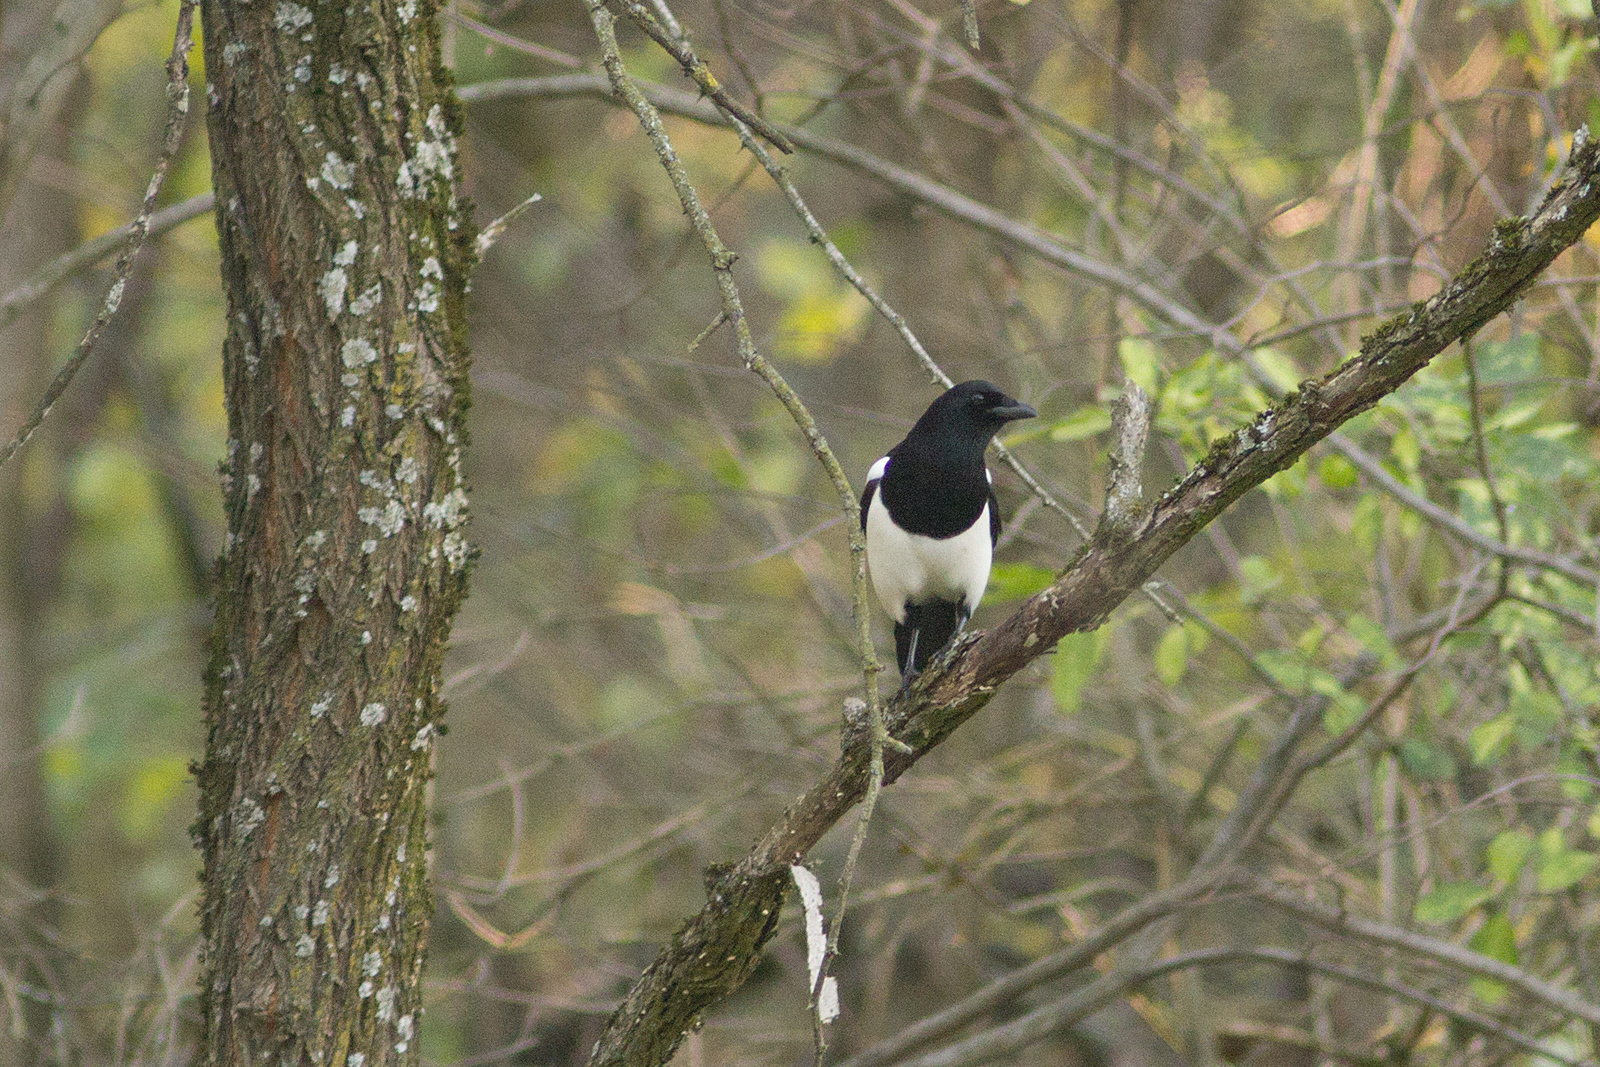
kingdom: Animalia
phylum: Chordata
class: Aves
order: Passeriformes
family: Corvidae
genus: Pica
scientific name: Pica pica
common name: Eurasian magpie
